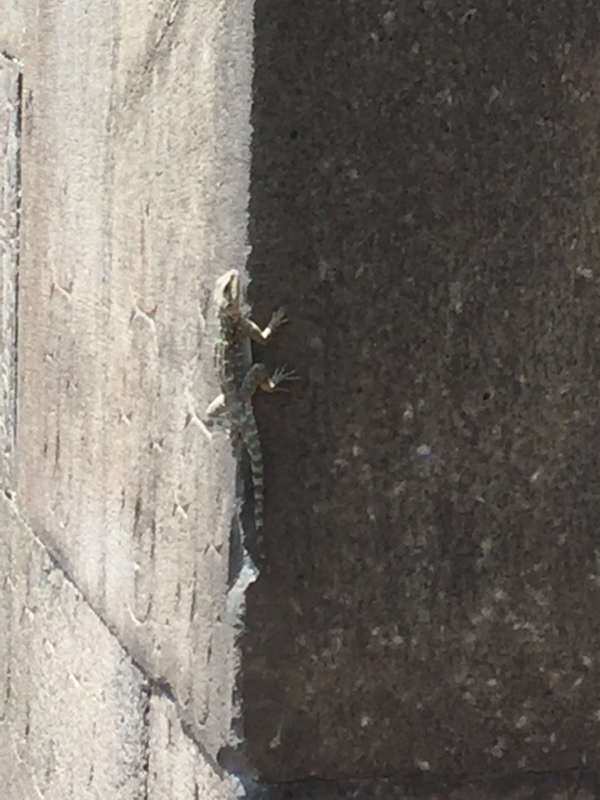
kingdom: Animalia
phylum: Chordata
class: Squamata
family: Agamidae
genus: Paralaudakia
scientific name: Paralaudakia caucasia
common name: Caucasian agama
